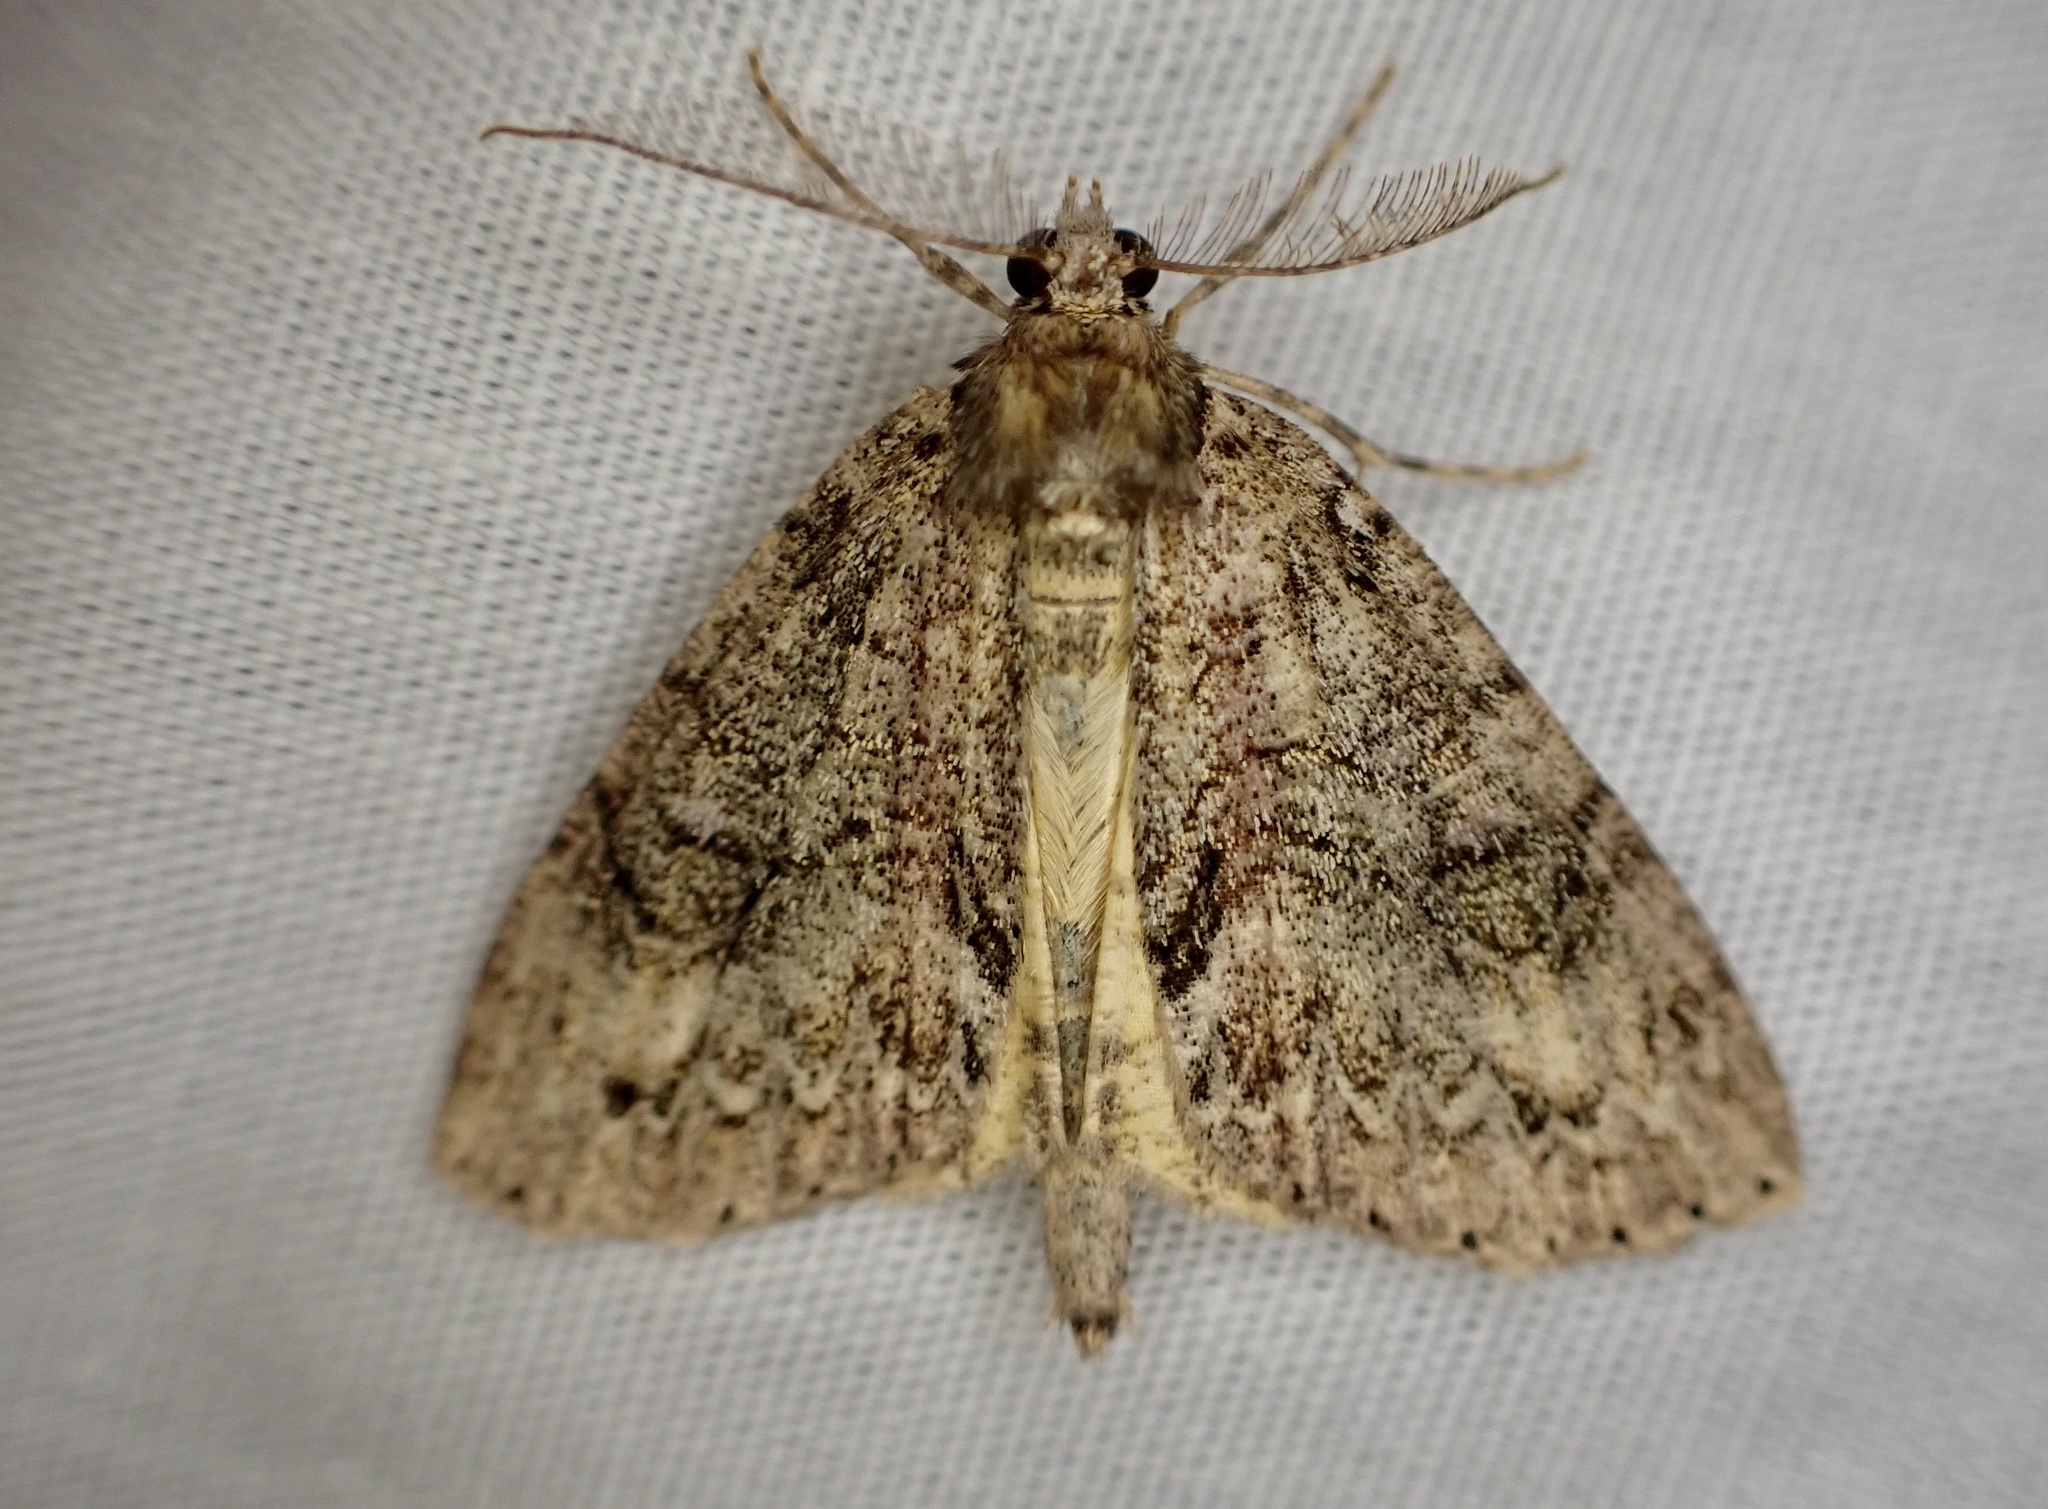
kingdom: Animalia
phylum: Arthropoda
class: Insecta
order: Lepidoptera
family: Geometridae
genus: Pseudocoremia
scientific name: Pseudocoremia suavis
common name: Common forest looper
